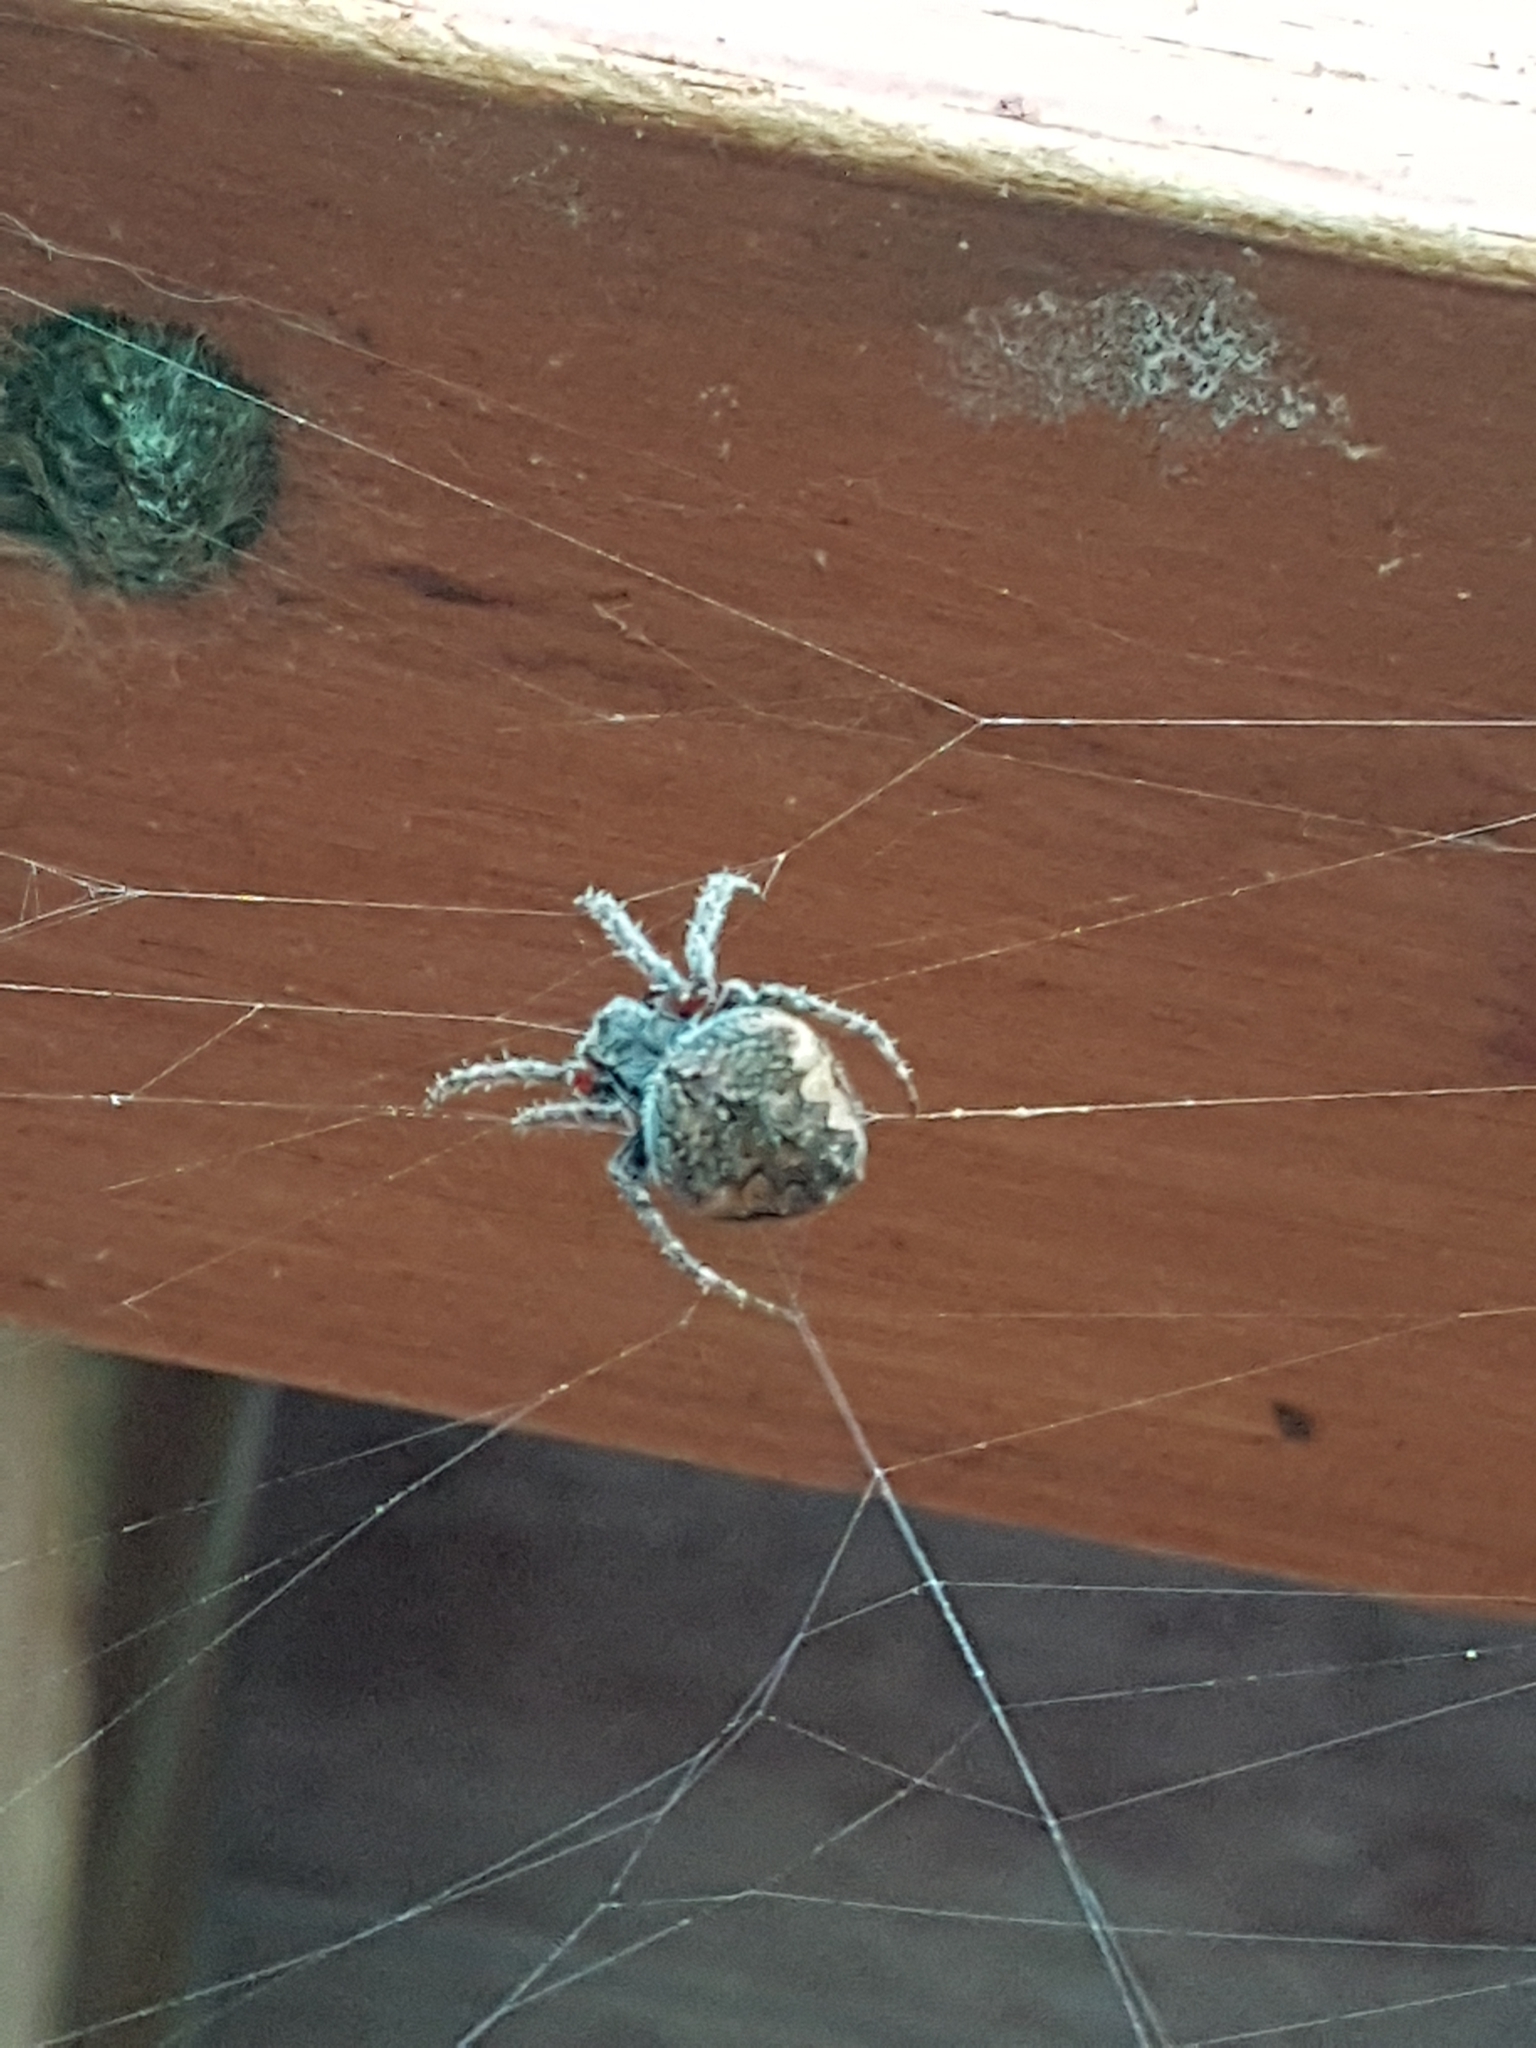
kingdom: Animalia
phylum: Arthropoda
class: Arachnida
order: Araneae
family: Araneidae
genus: Eriophora
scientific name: Eriophora pustulosa
